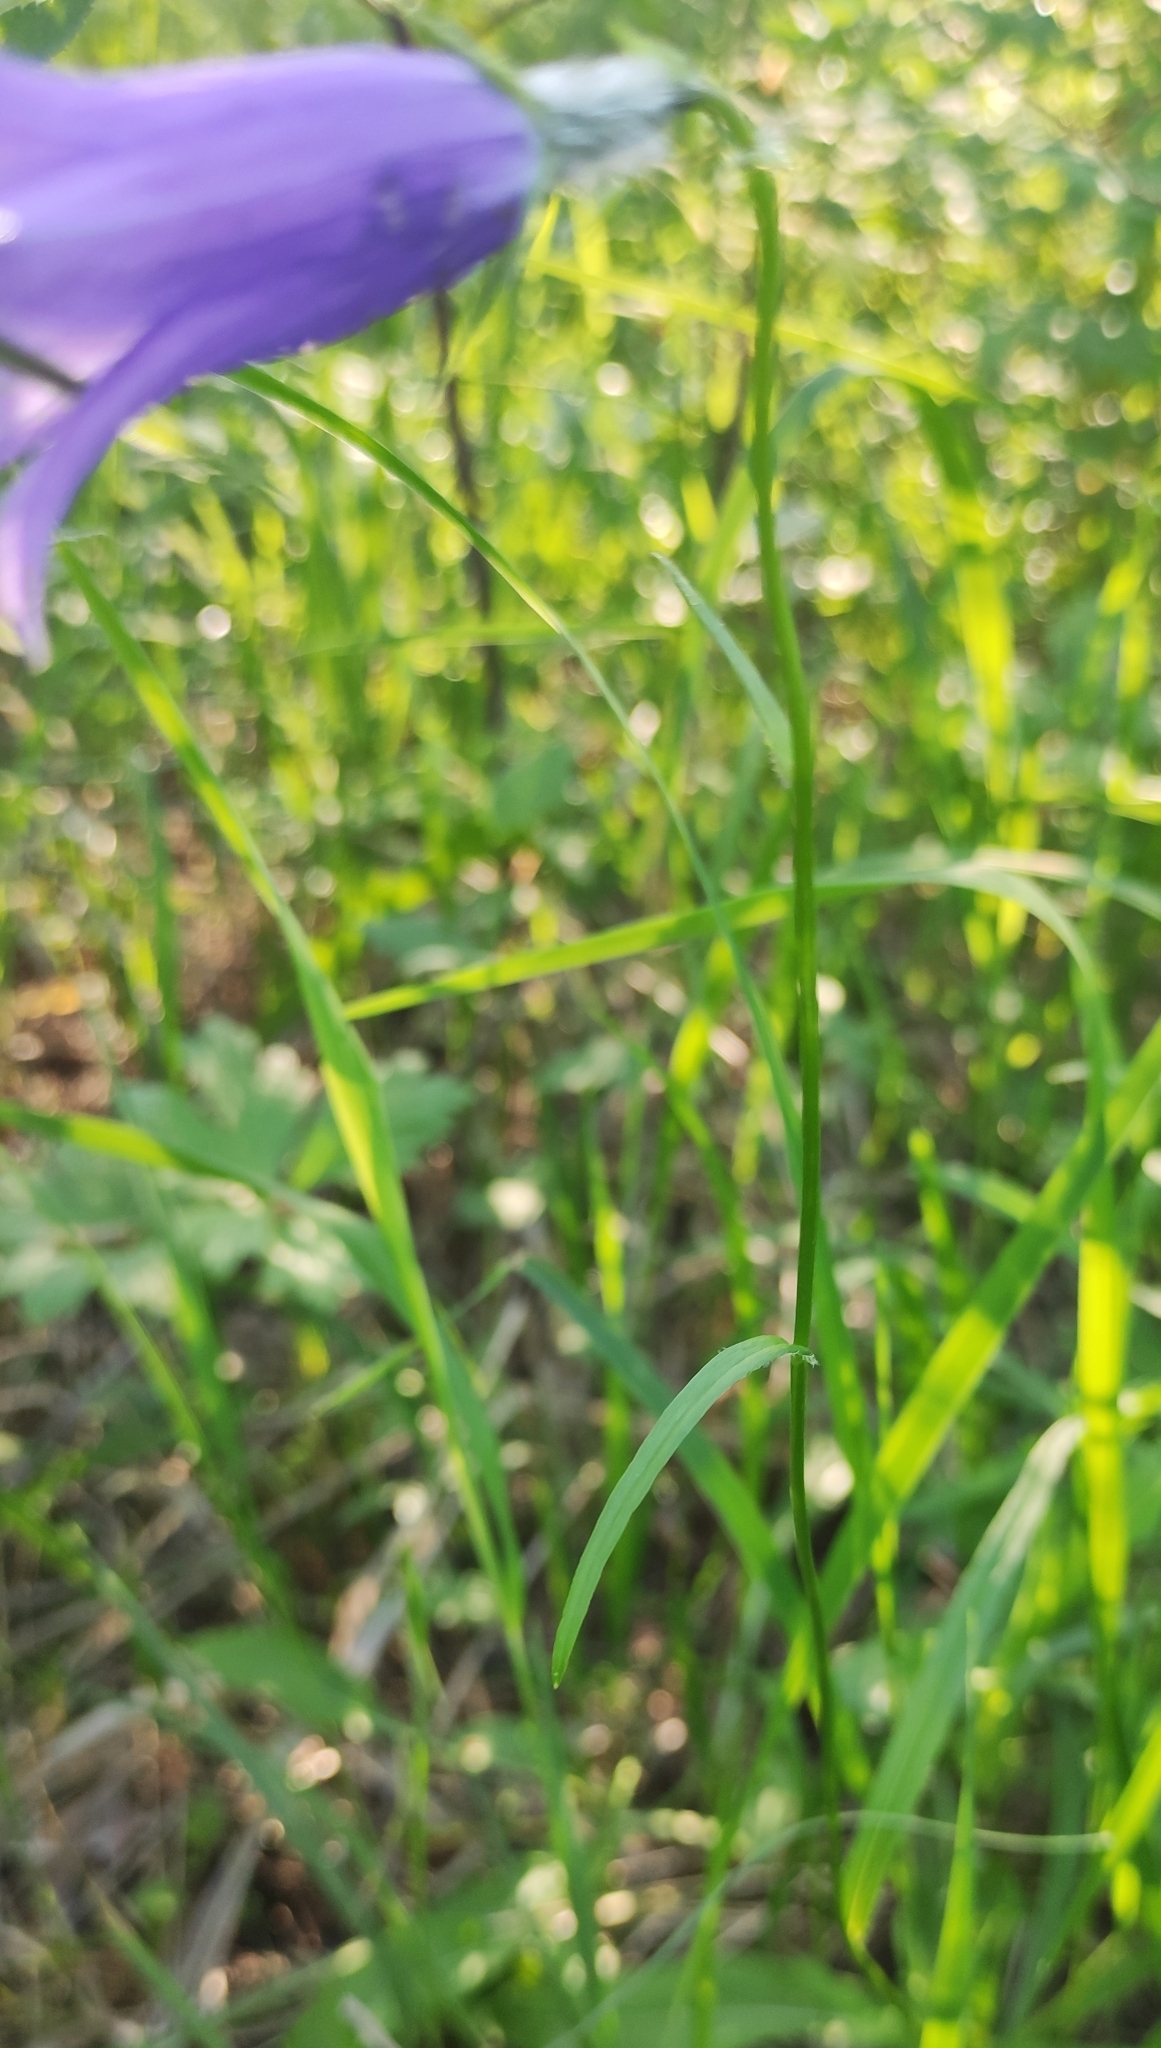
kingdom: Plantae
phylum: Tracheophyta
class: Magnoliopsida
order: Asterales
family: Campanulaceae
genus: Campanula
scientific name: Campanula stevenii
